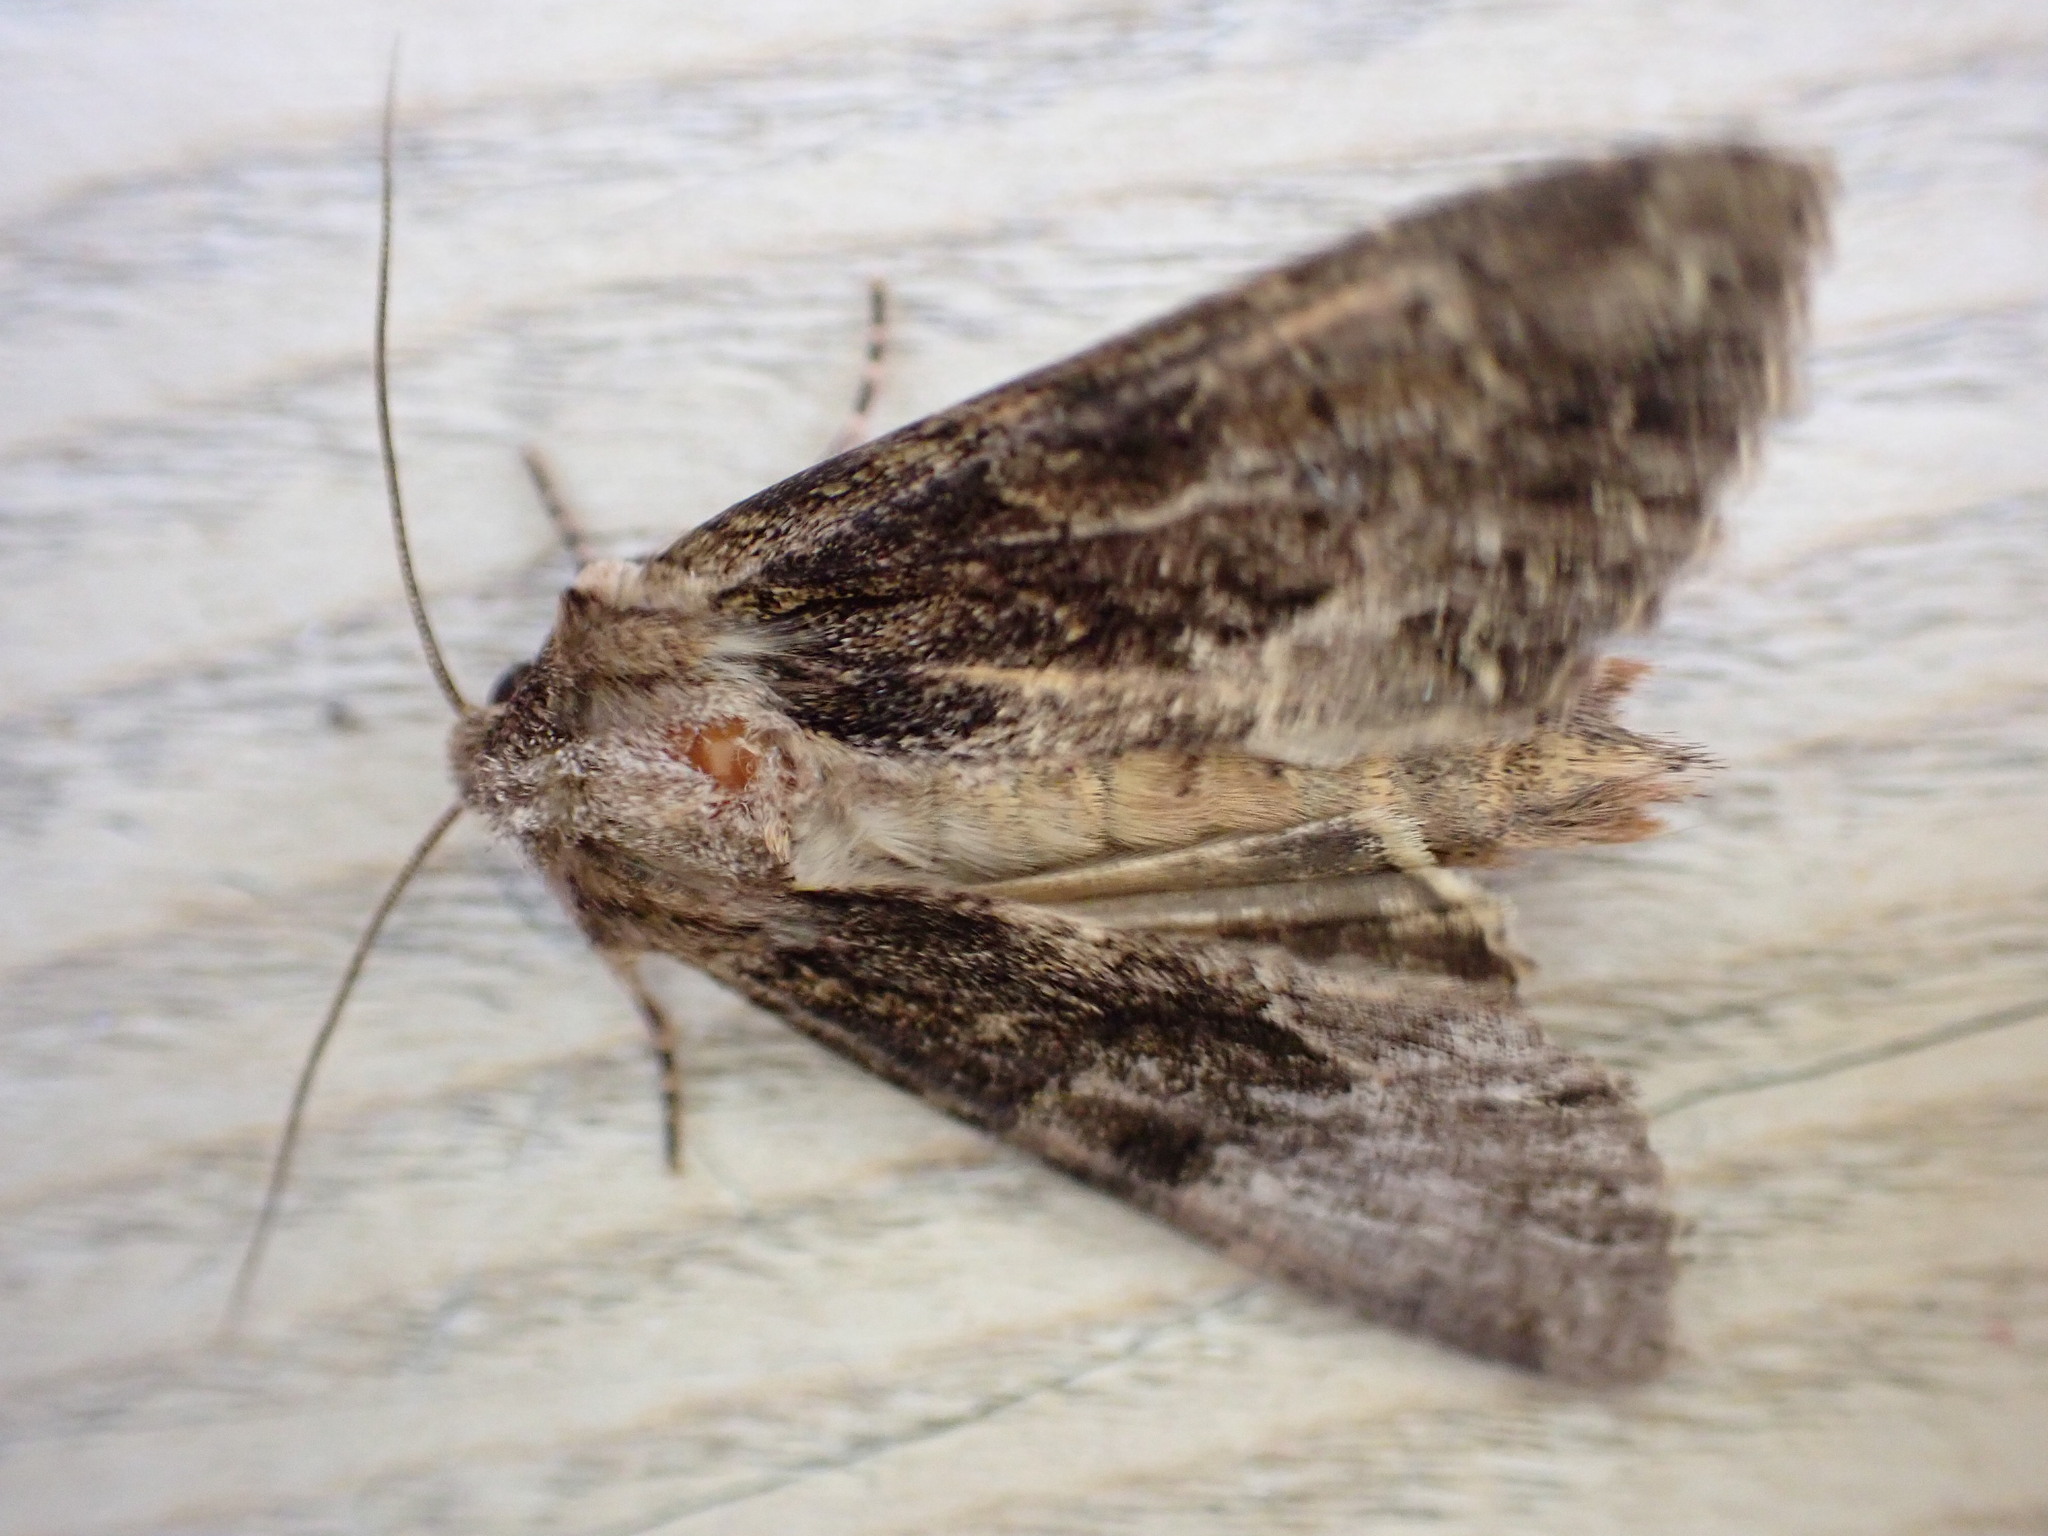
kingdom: Animalia
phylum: Arthropoda
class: Insecta
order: Lepidoptera
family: Noctuidae
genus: Apamea
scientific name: Apamea monoglypha
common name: Dark arches
